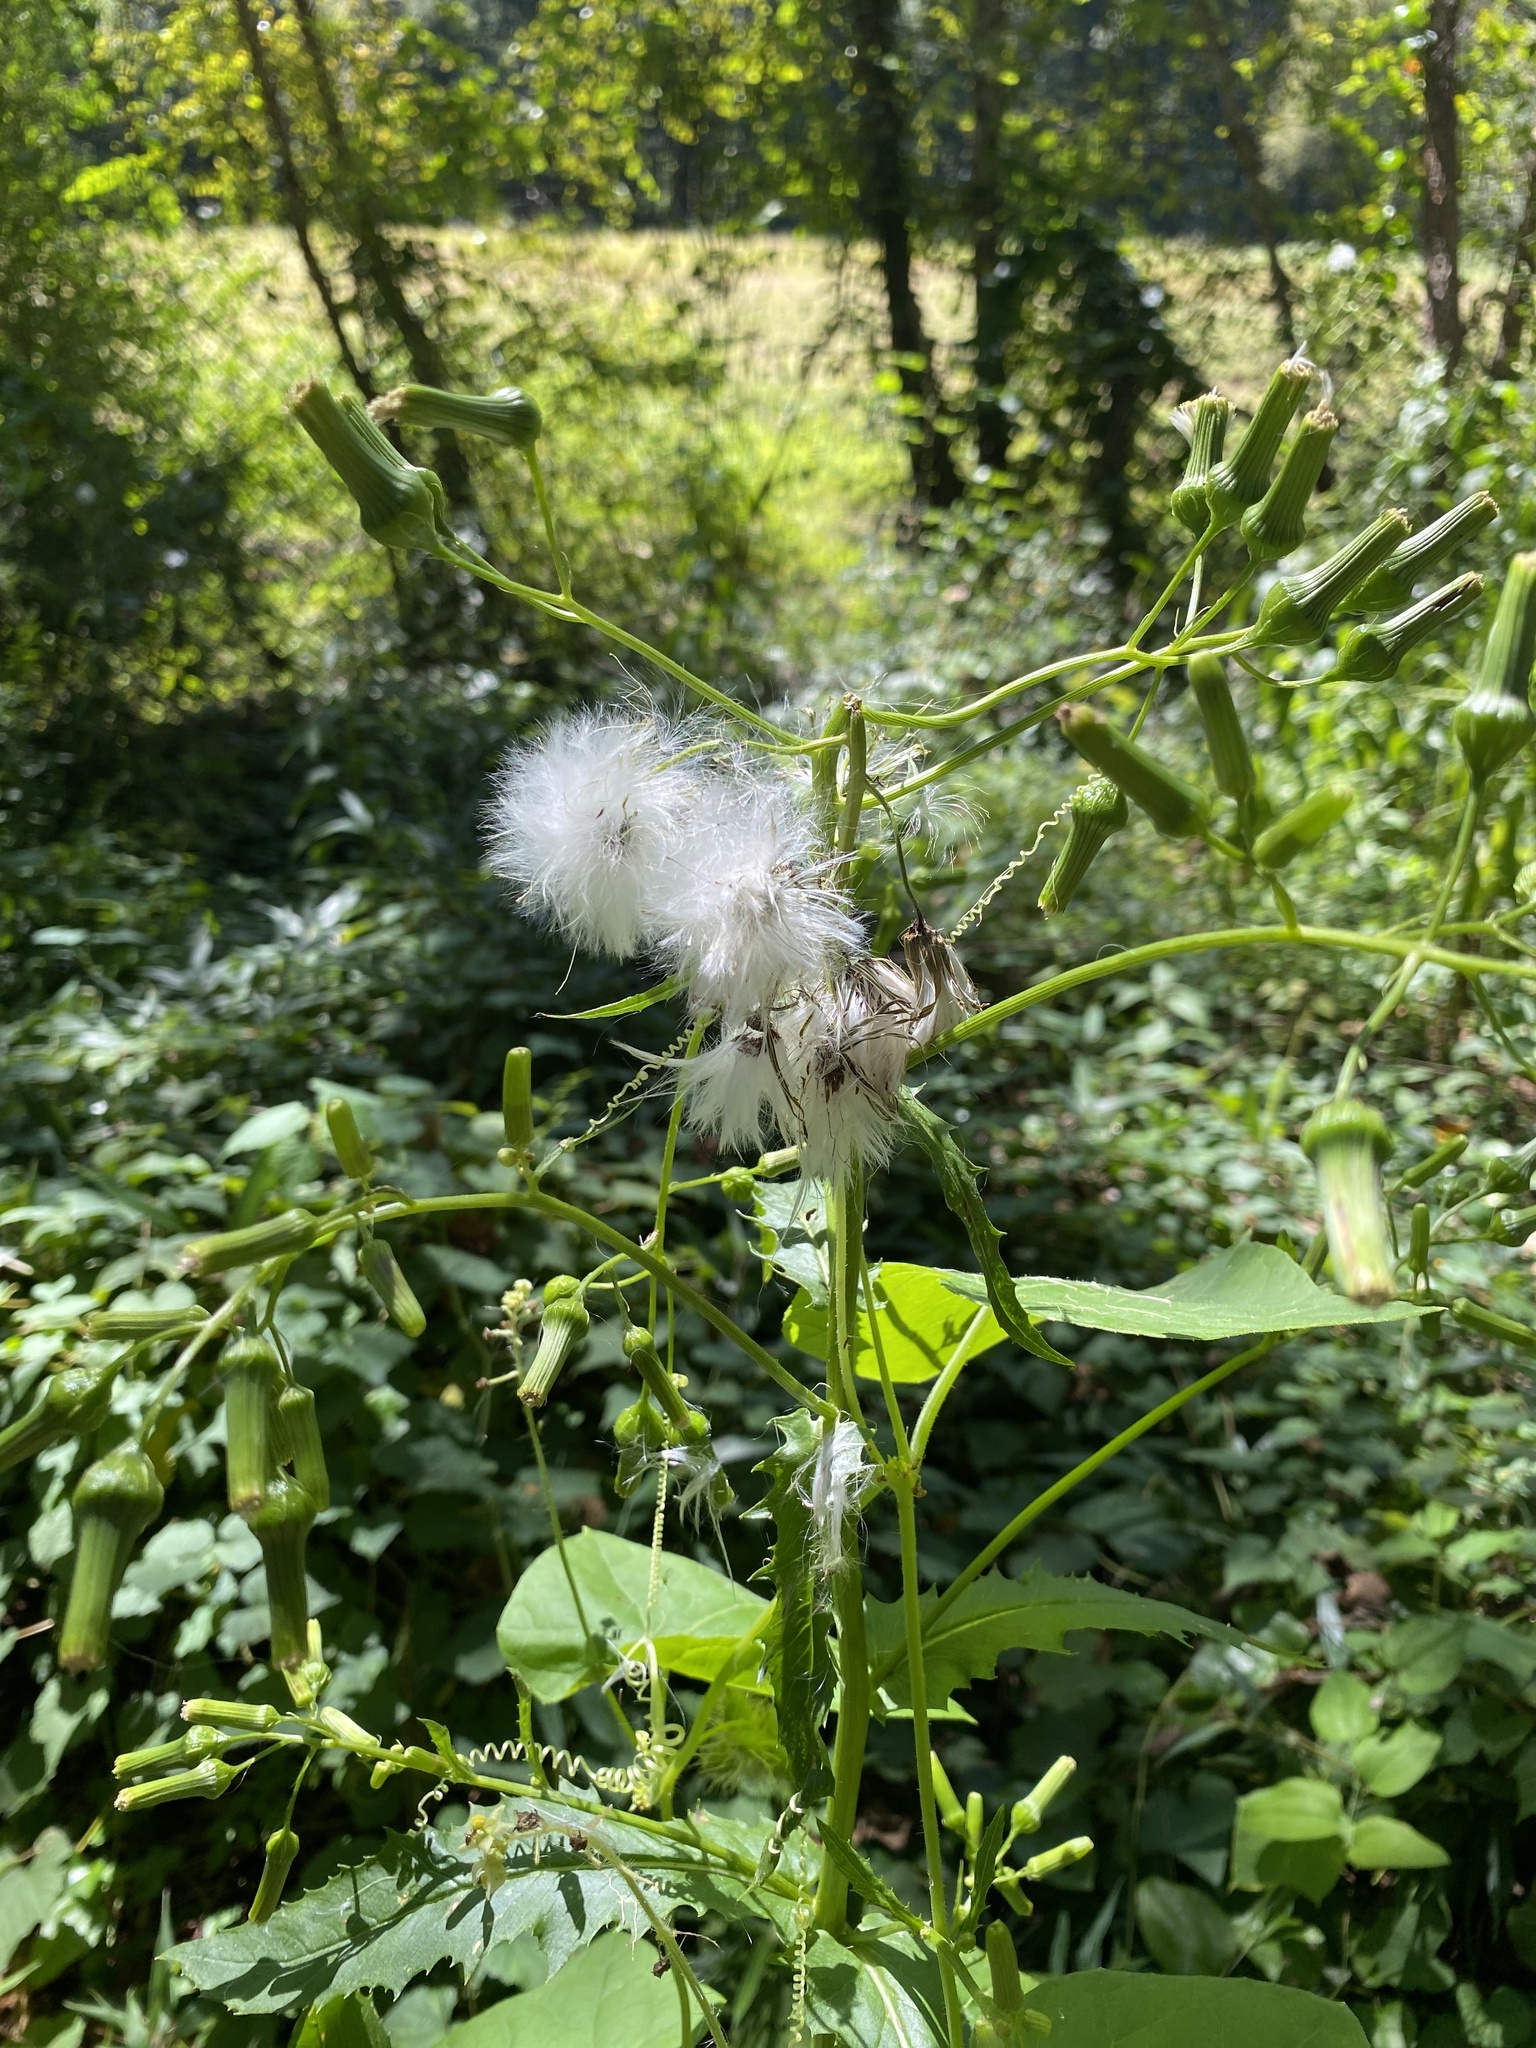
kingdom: Plantae
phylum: Tracheophyta
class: Magnoliopsida
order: Asterales
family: Asteraceae
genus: Erechtites
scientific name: Erechtites hieraciifolius
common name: American burnweed
